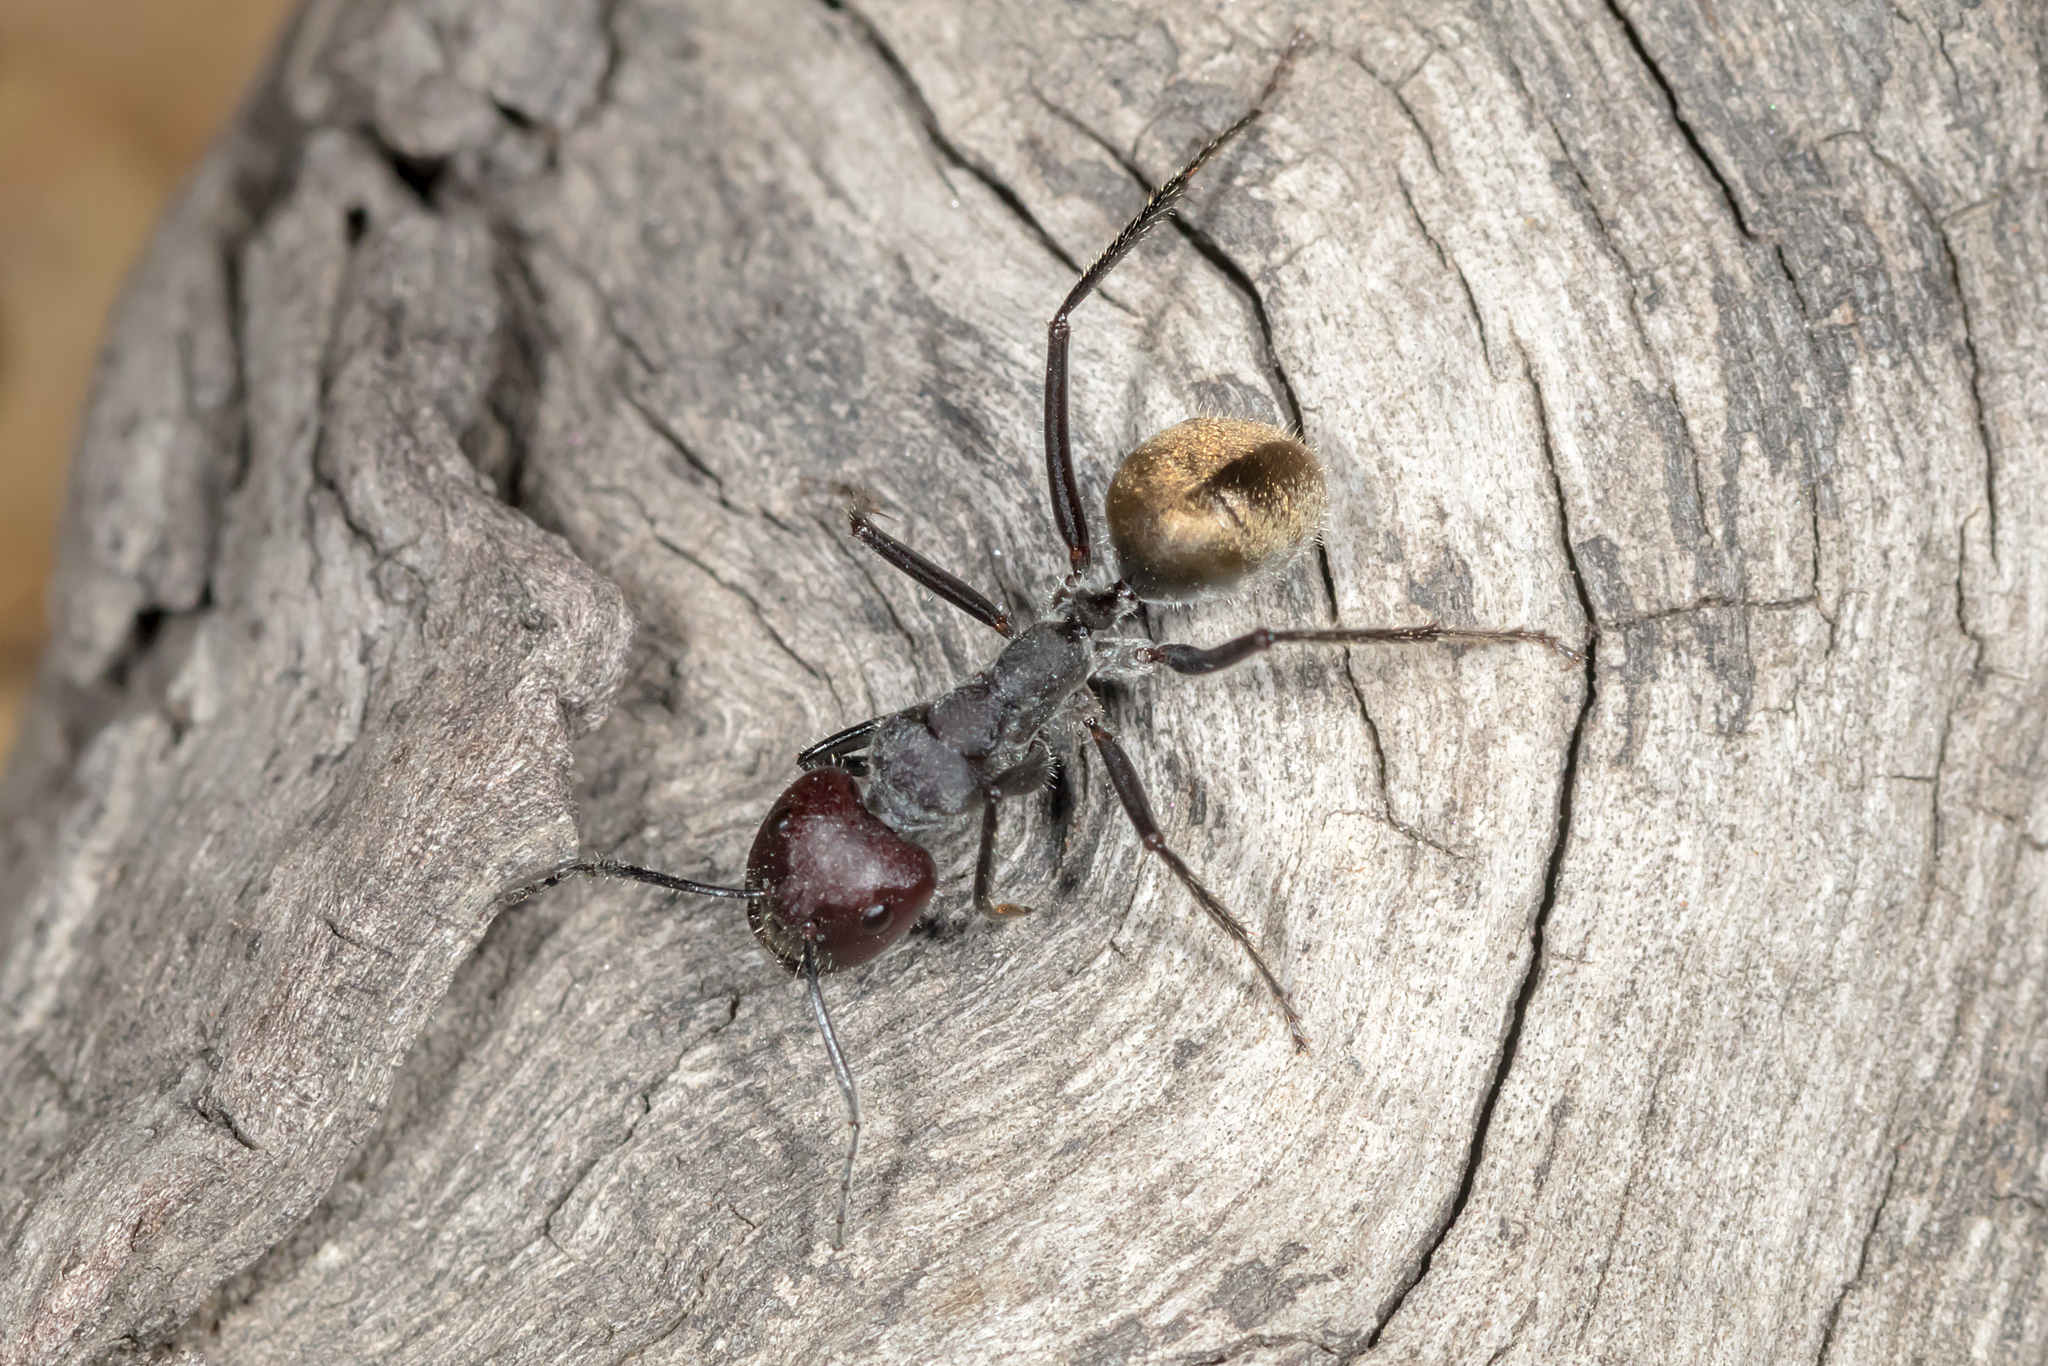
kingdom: Animalia
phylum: Arthropoda
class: Insecta
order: Hymenoptera
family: Formicidae
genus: Camponotus
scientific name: Camponotus suffusus
